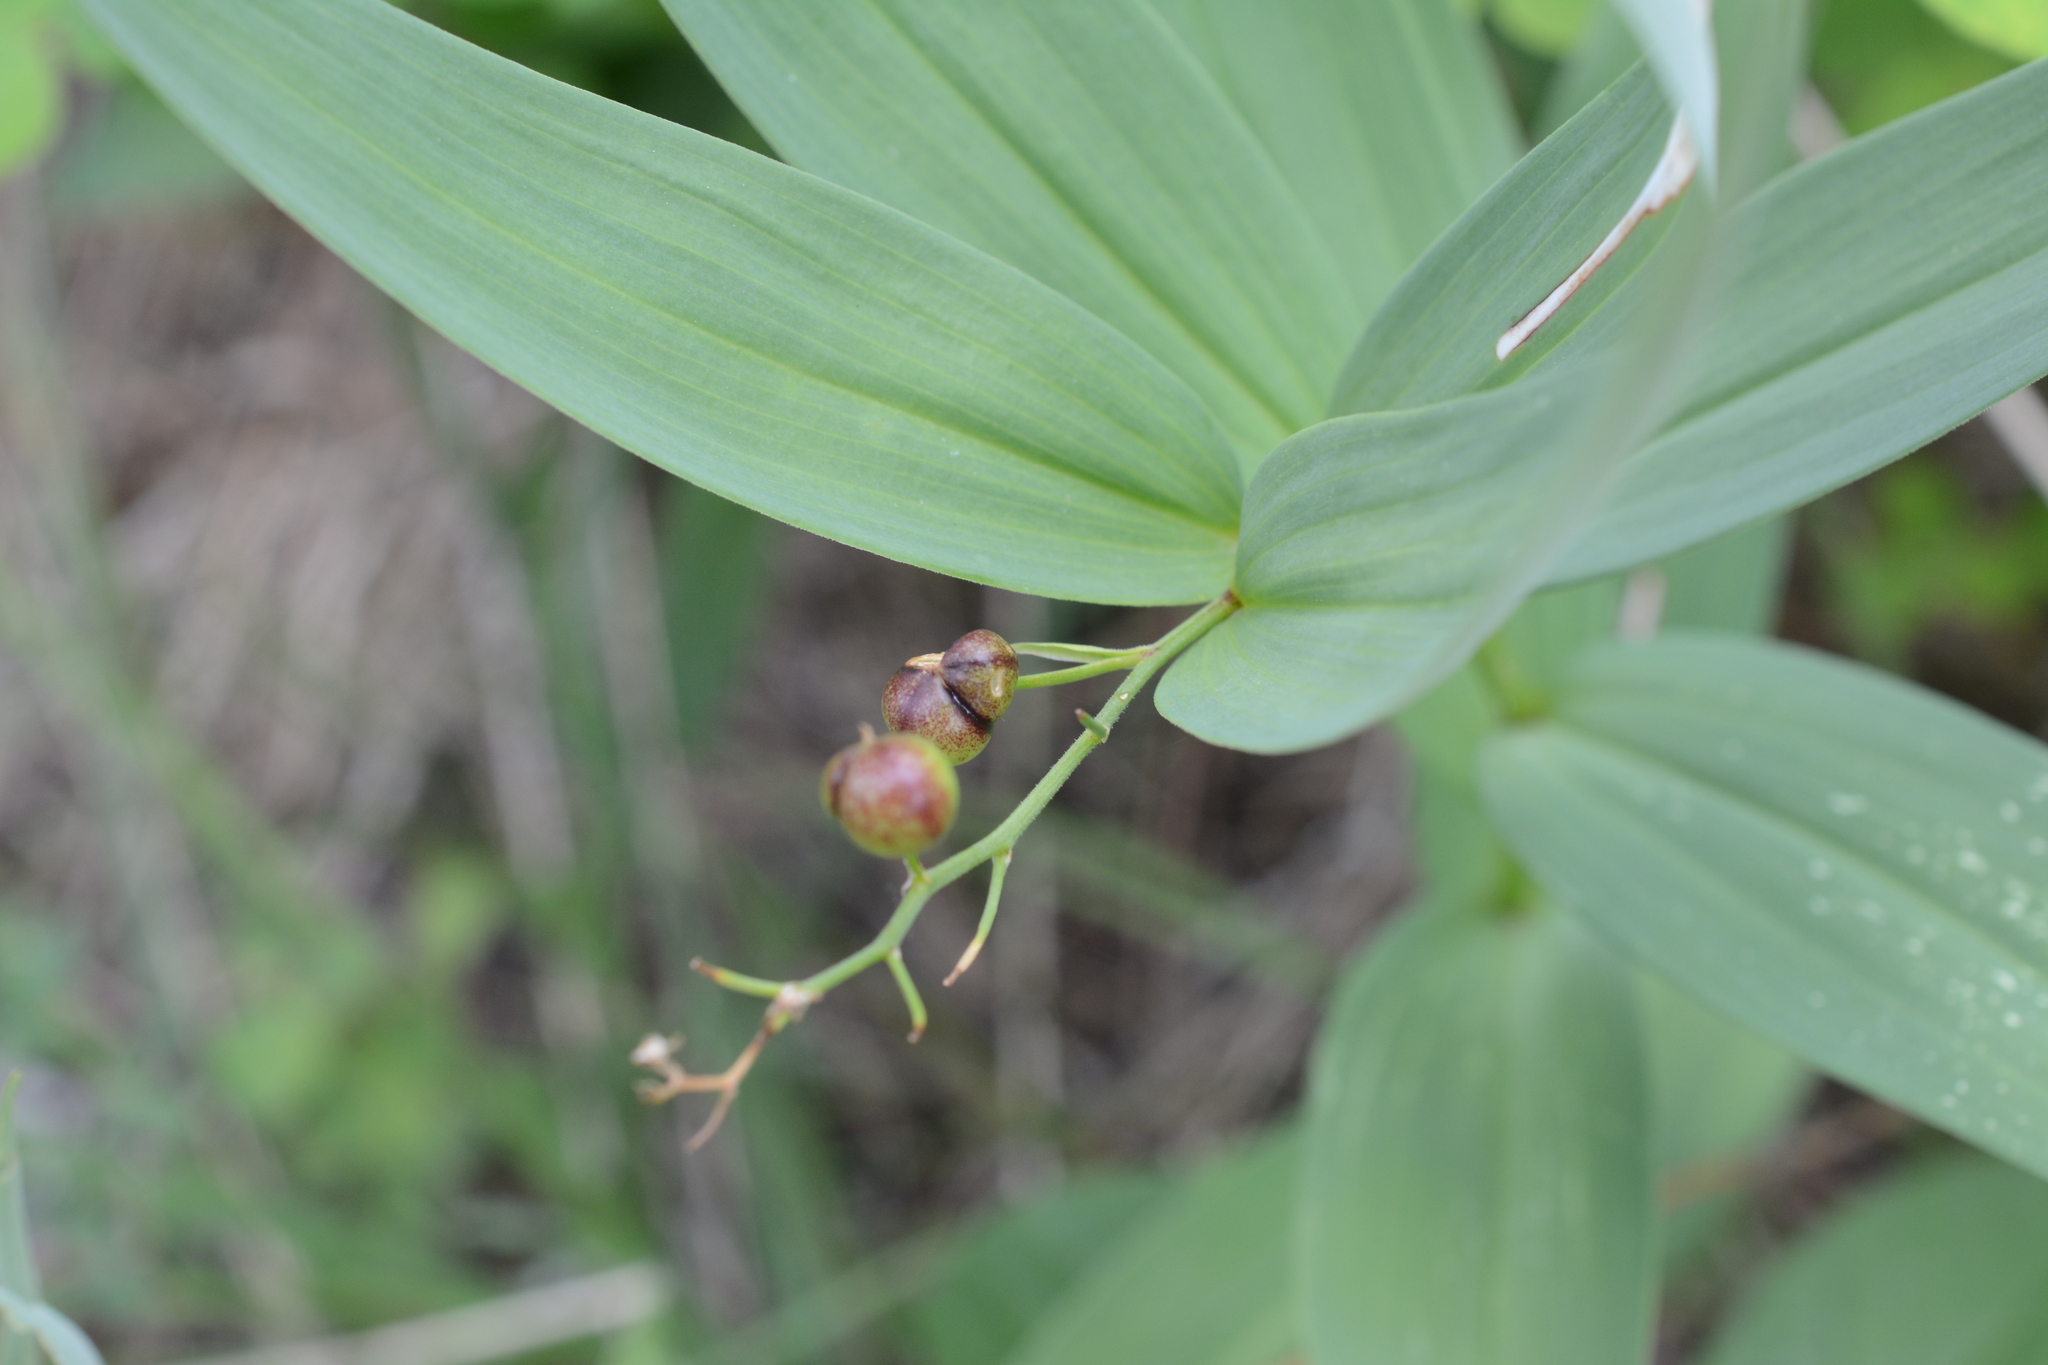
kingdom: Plantae
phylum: Tracheophyta
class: Liliopsida
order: Asparagales
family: Asparagaceae
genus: Maianthemum
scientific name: Maianthemum stellatum
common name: Little false solomon's seal
